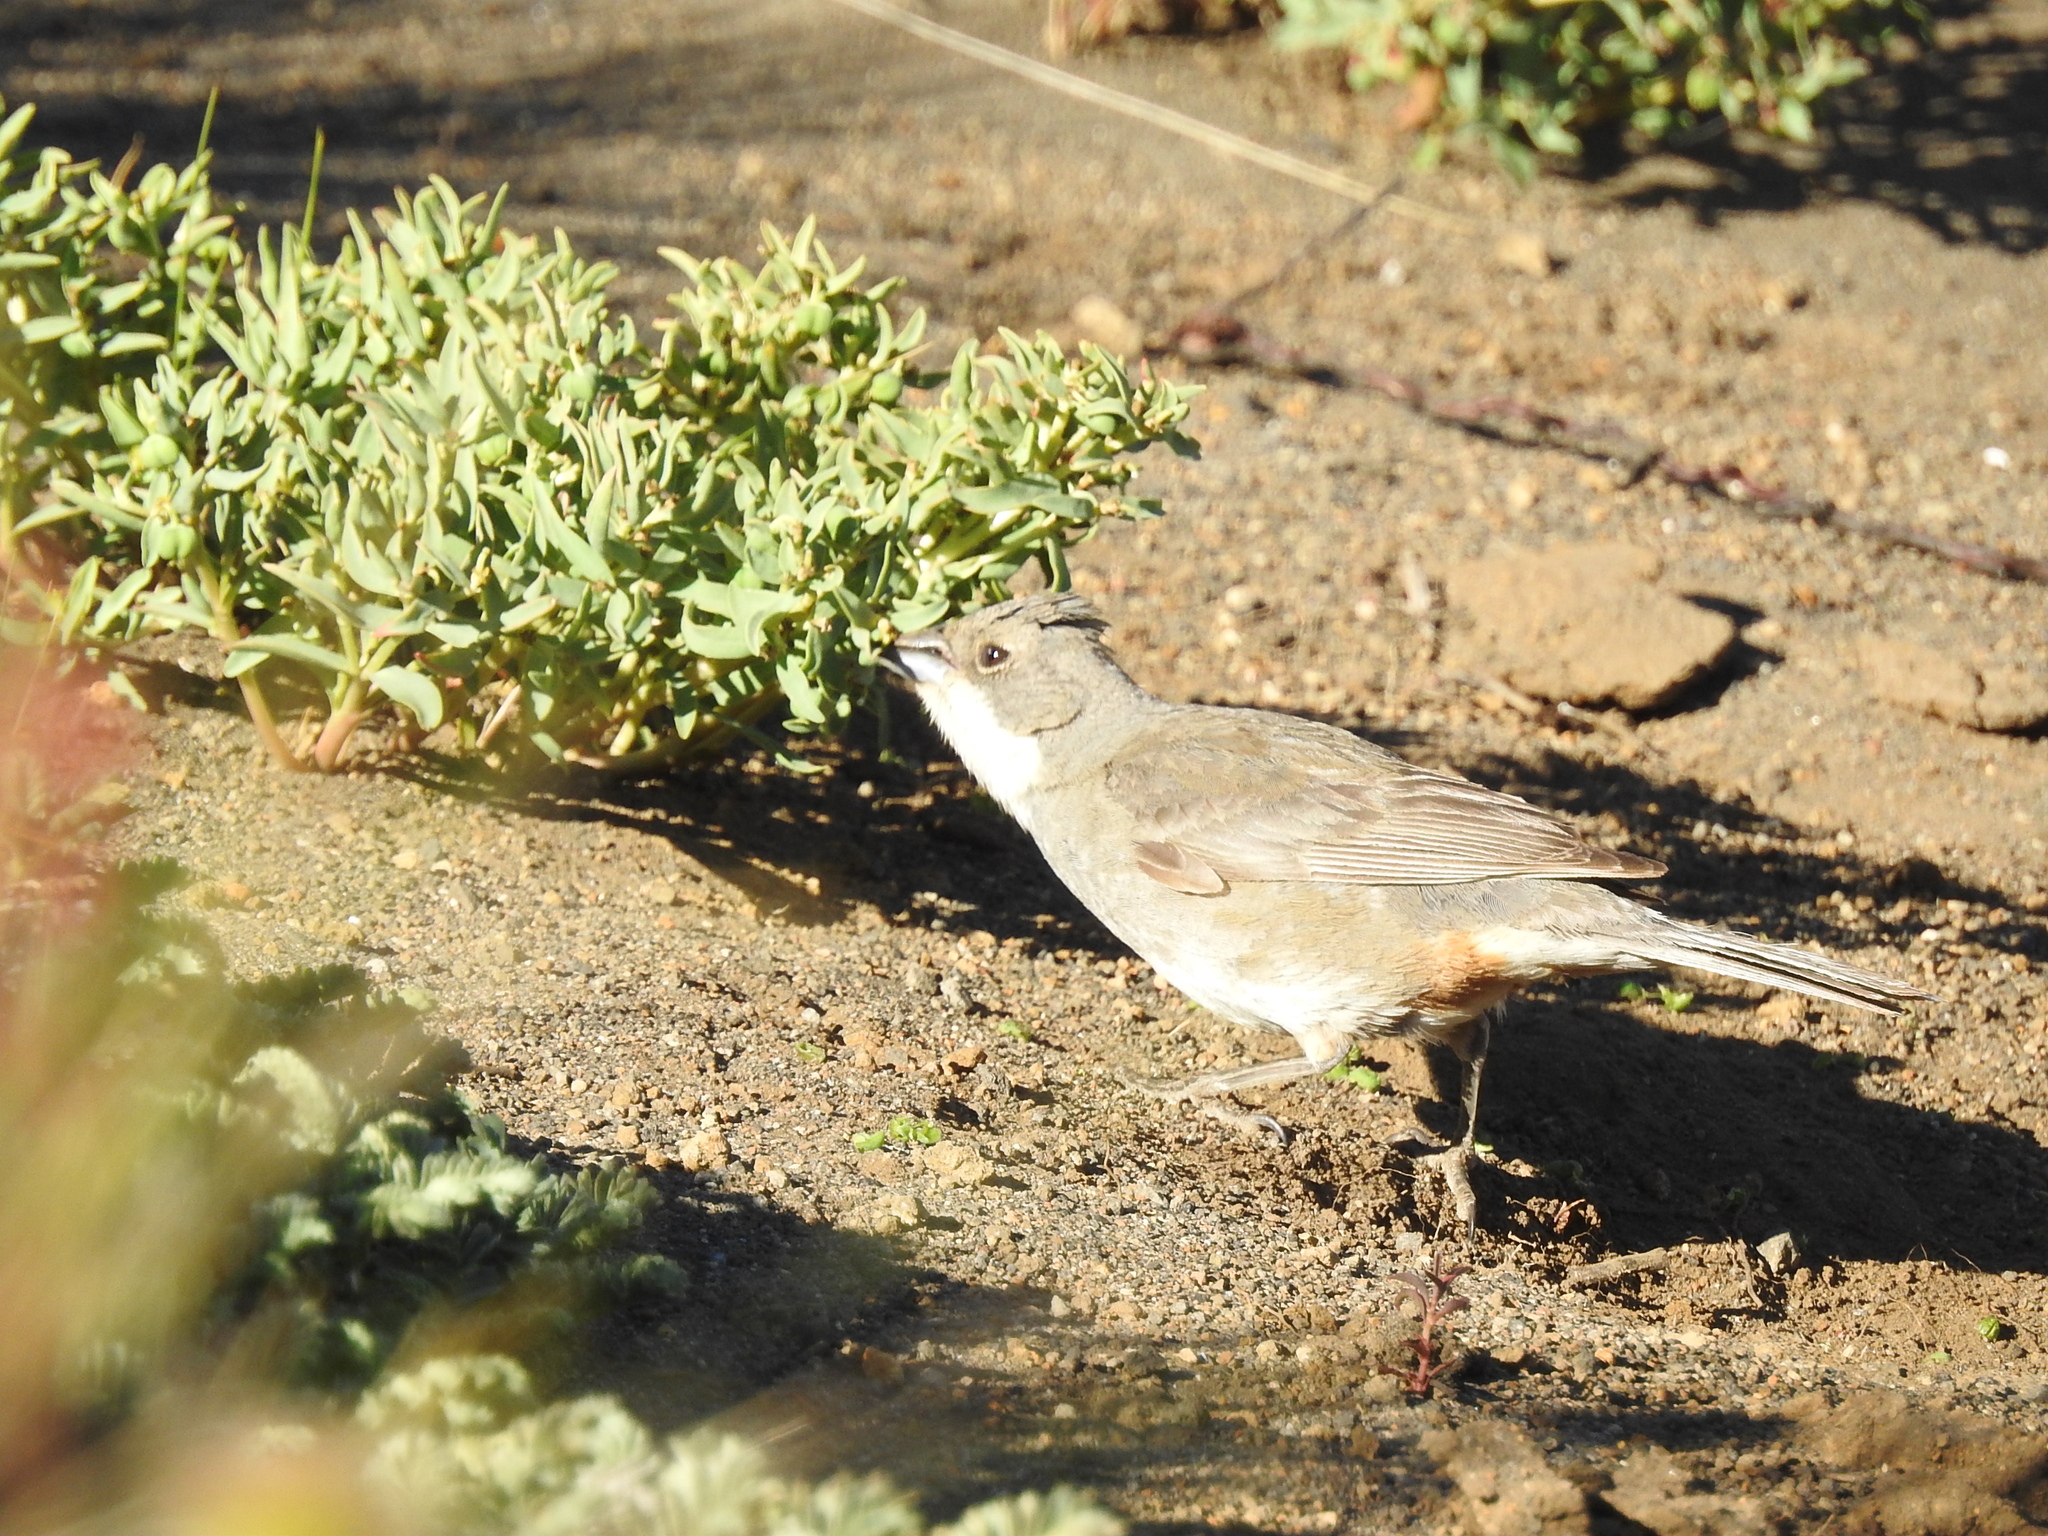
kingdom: Animalia
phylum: Chordata
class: Aves
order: Passeriformes
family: Thraupidae
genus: Diuca
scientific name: Diuca diuca
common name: Common diuca finch
